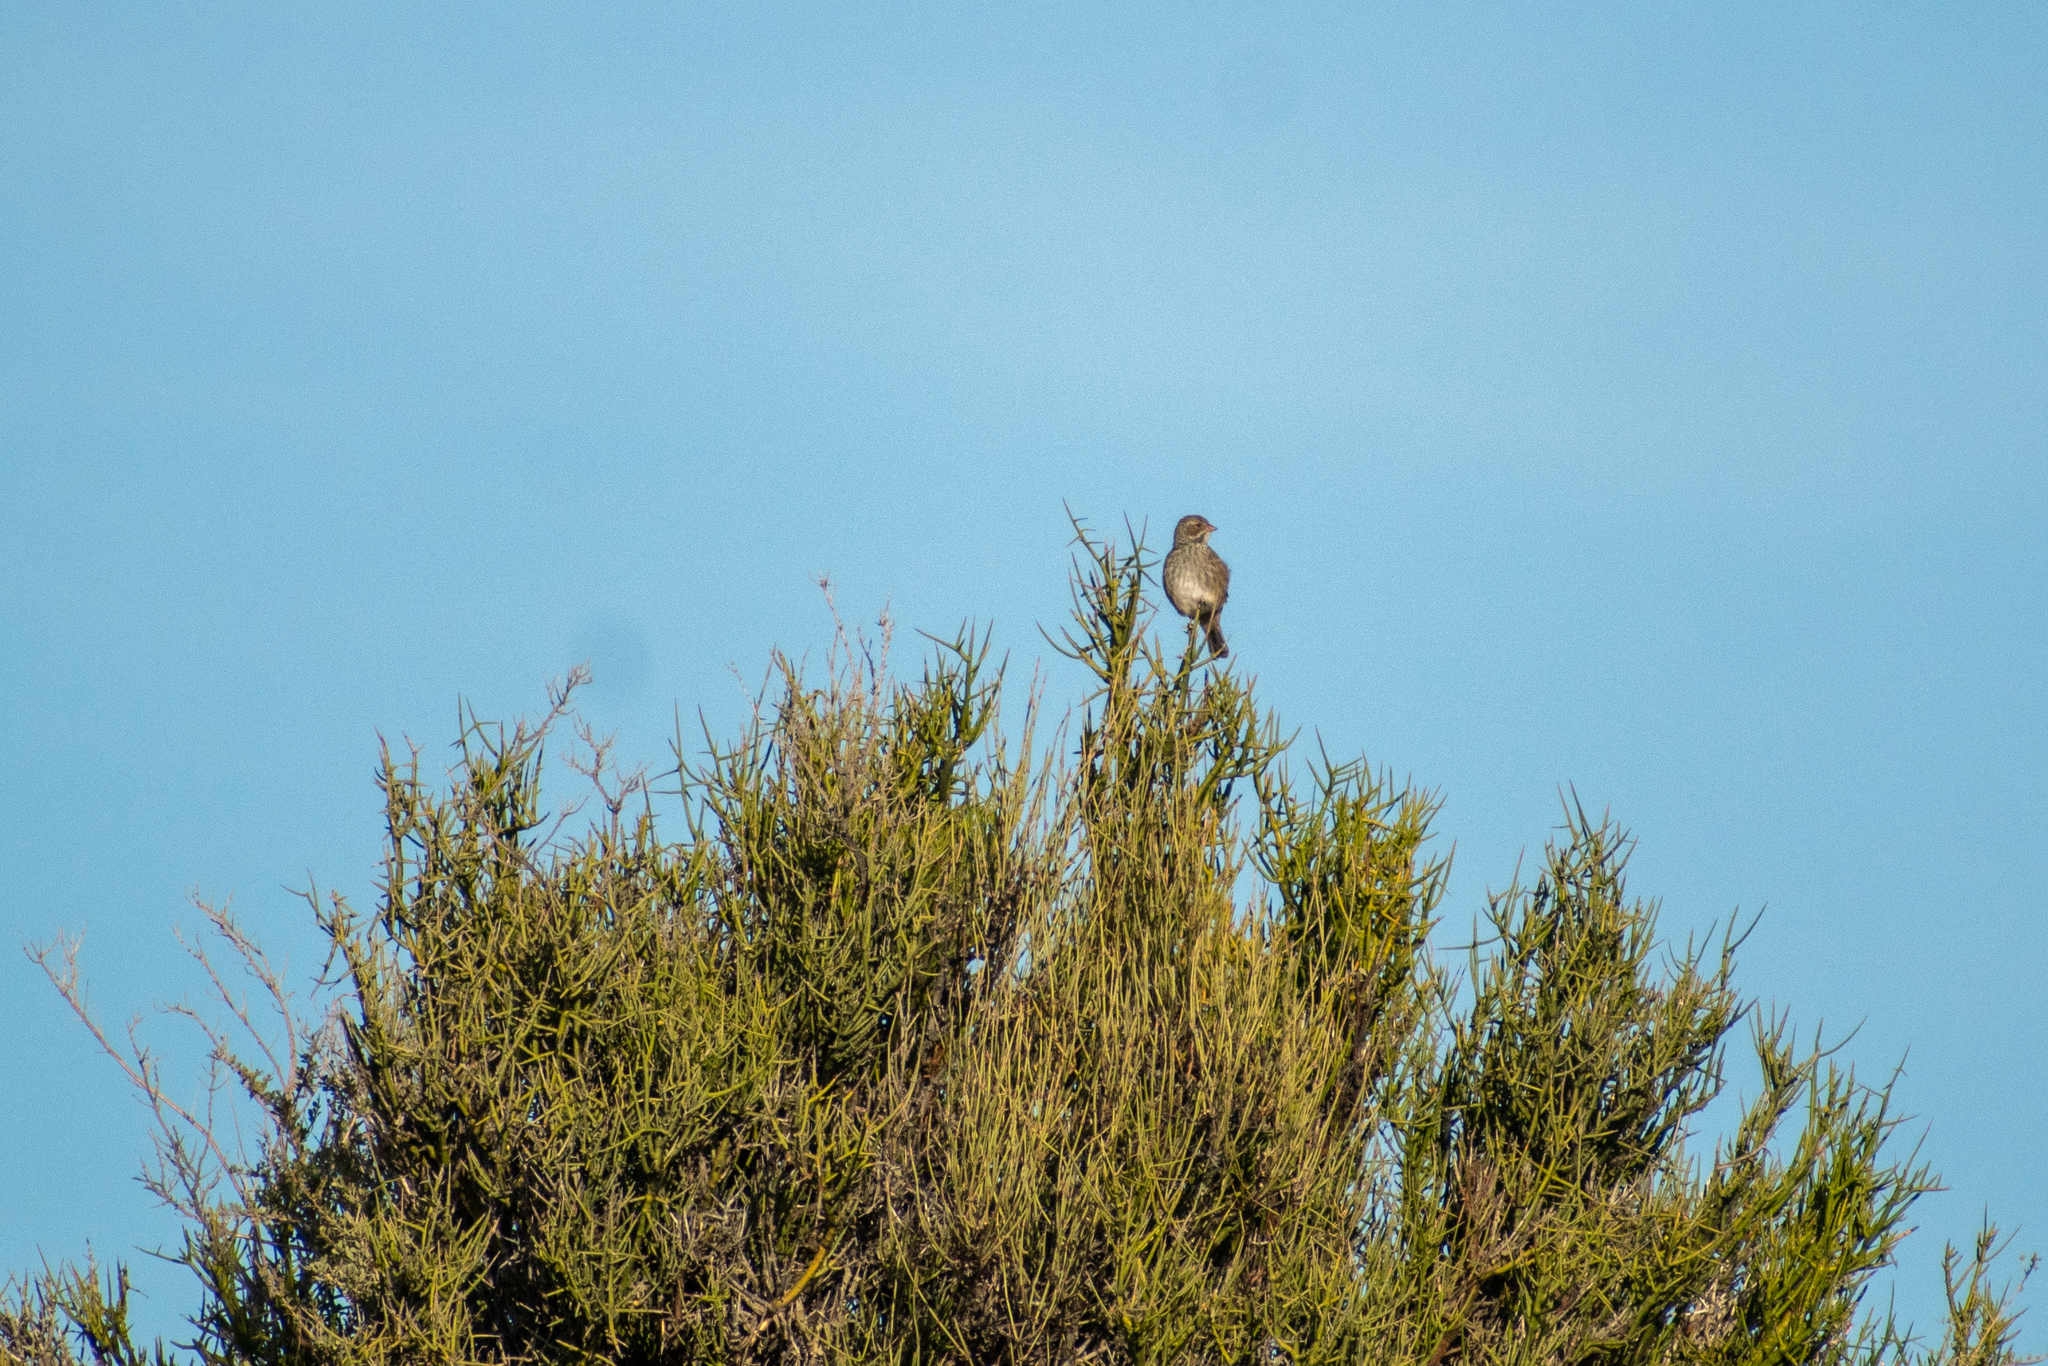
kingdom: Animalia
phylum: Chordata
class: Aves
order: Passeriformes
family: Thraupidae
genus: Rhopospina
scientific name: Rhopospina fruticeti
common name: Mourning sierra finch
